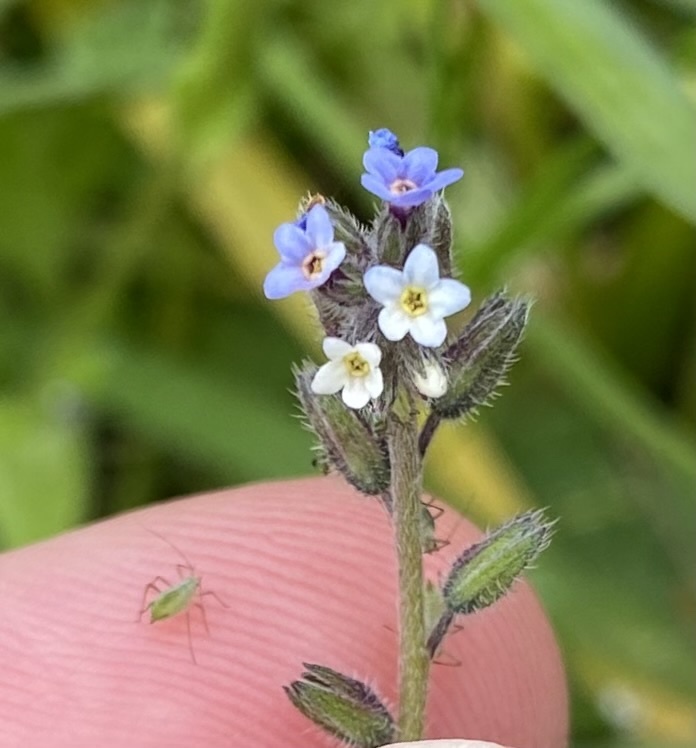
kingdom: Plantae
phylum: Tracheophyta
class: Magnoliopsida
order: Boraginales
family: Boraginaceae
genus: Myosotis
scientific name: Myosotis discolor
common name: Changing forget-me-not
